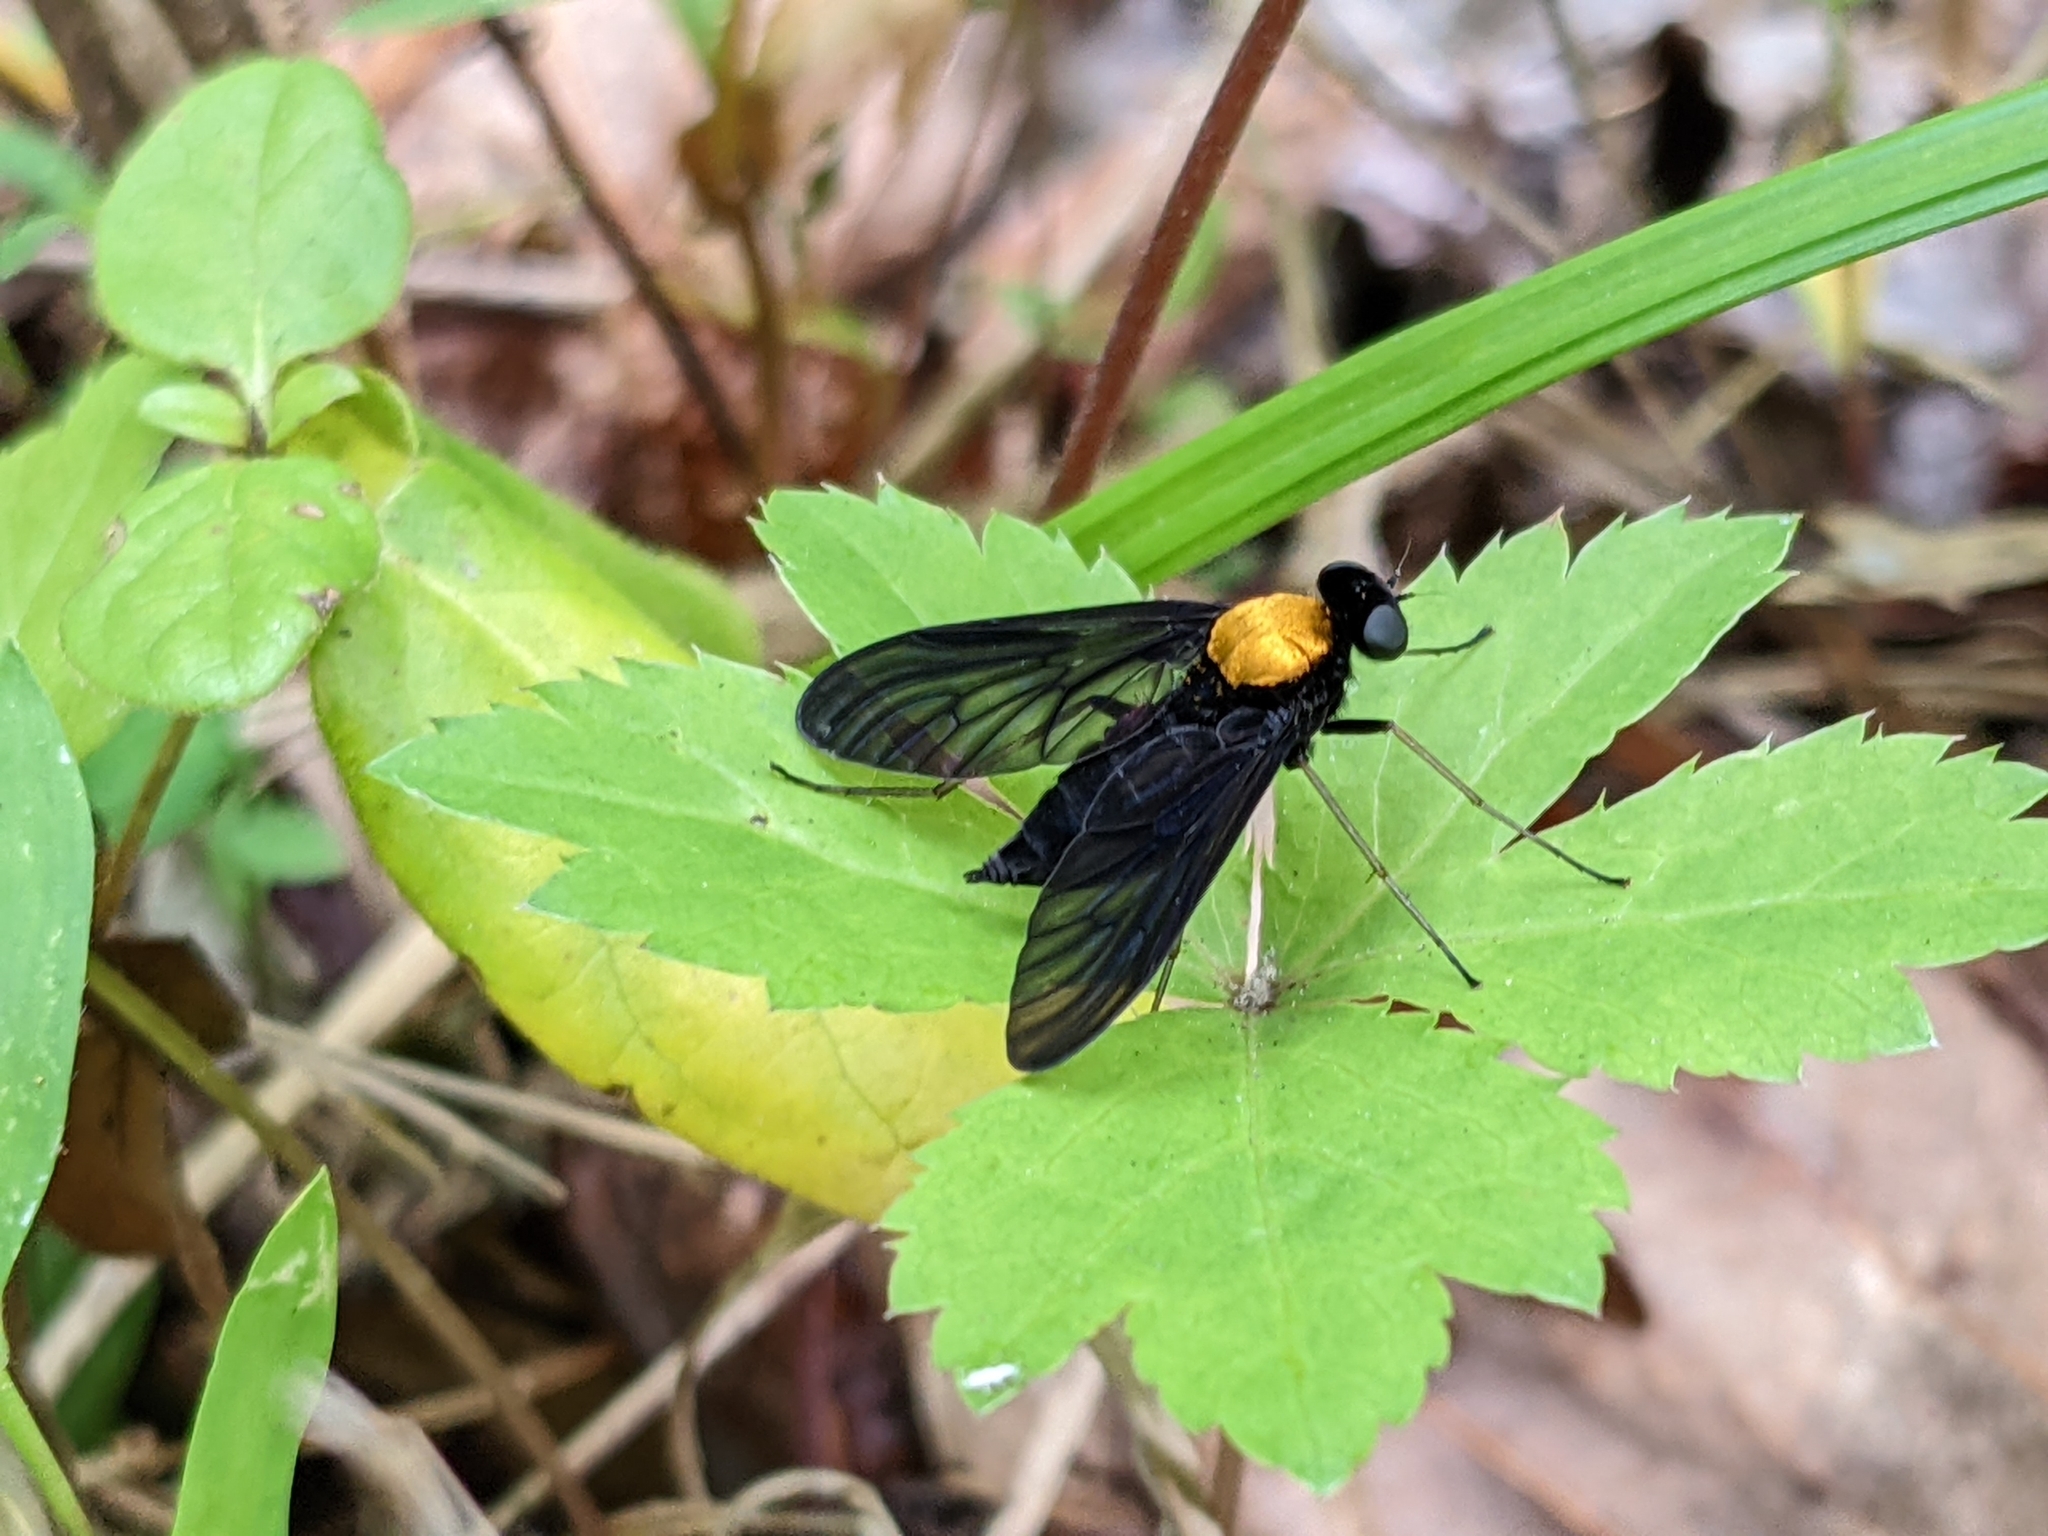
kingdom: Animalia
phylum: Arthropoda
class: Insecta
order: Diptera
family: Rhagionidae
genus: Chrysopilus
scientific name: Chrysopilus davisi
